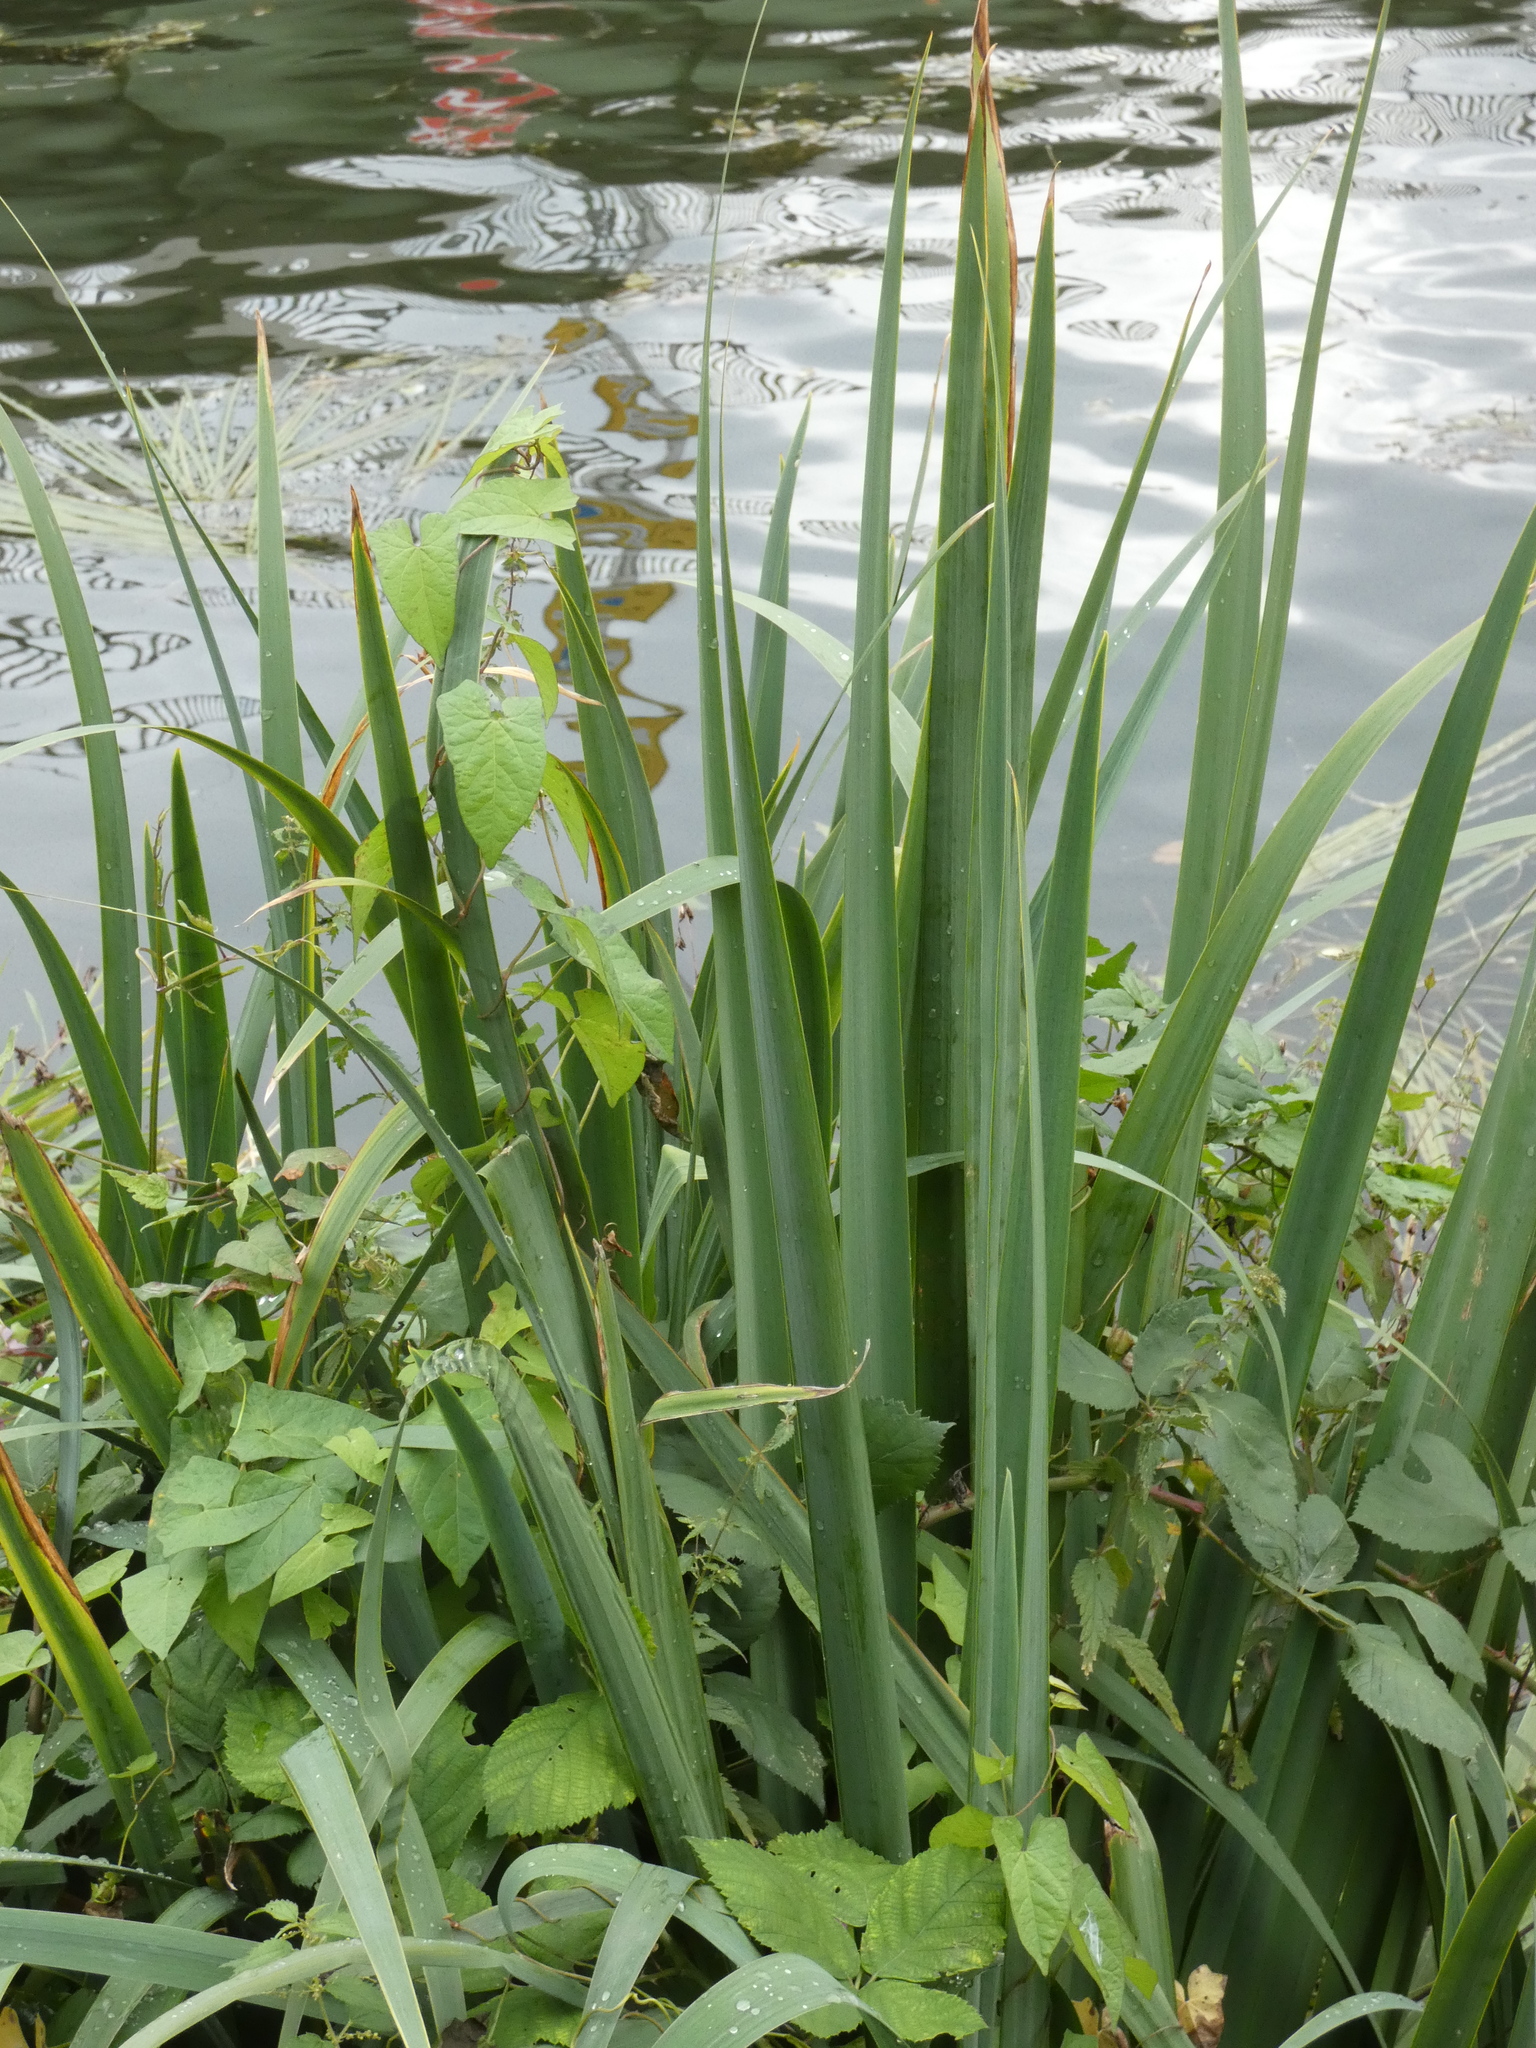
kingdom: Plantae
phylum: Tracheophyta
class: Liliopsida
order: Asparagales
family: Iridaceae
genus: Iris
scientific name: Iris pseudacorus
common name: Yellow flag
